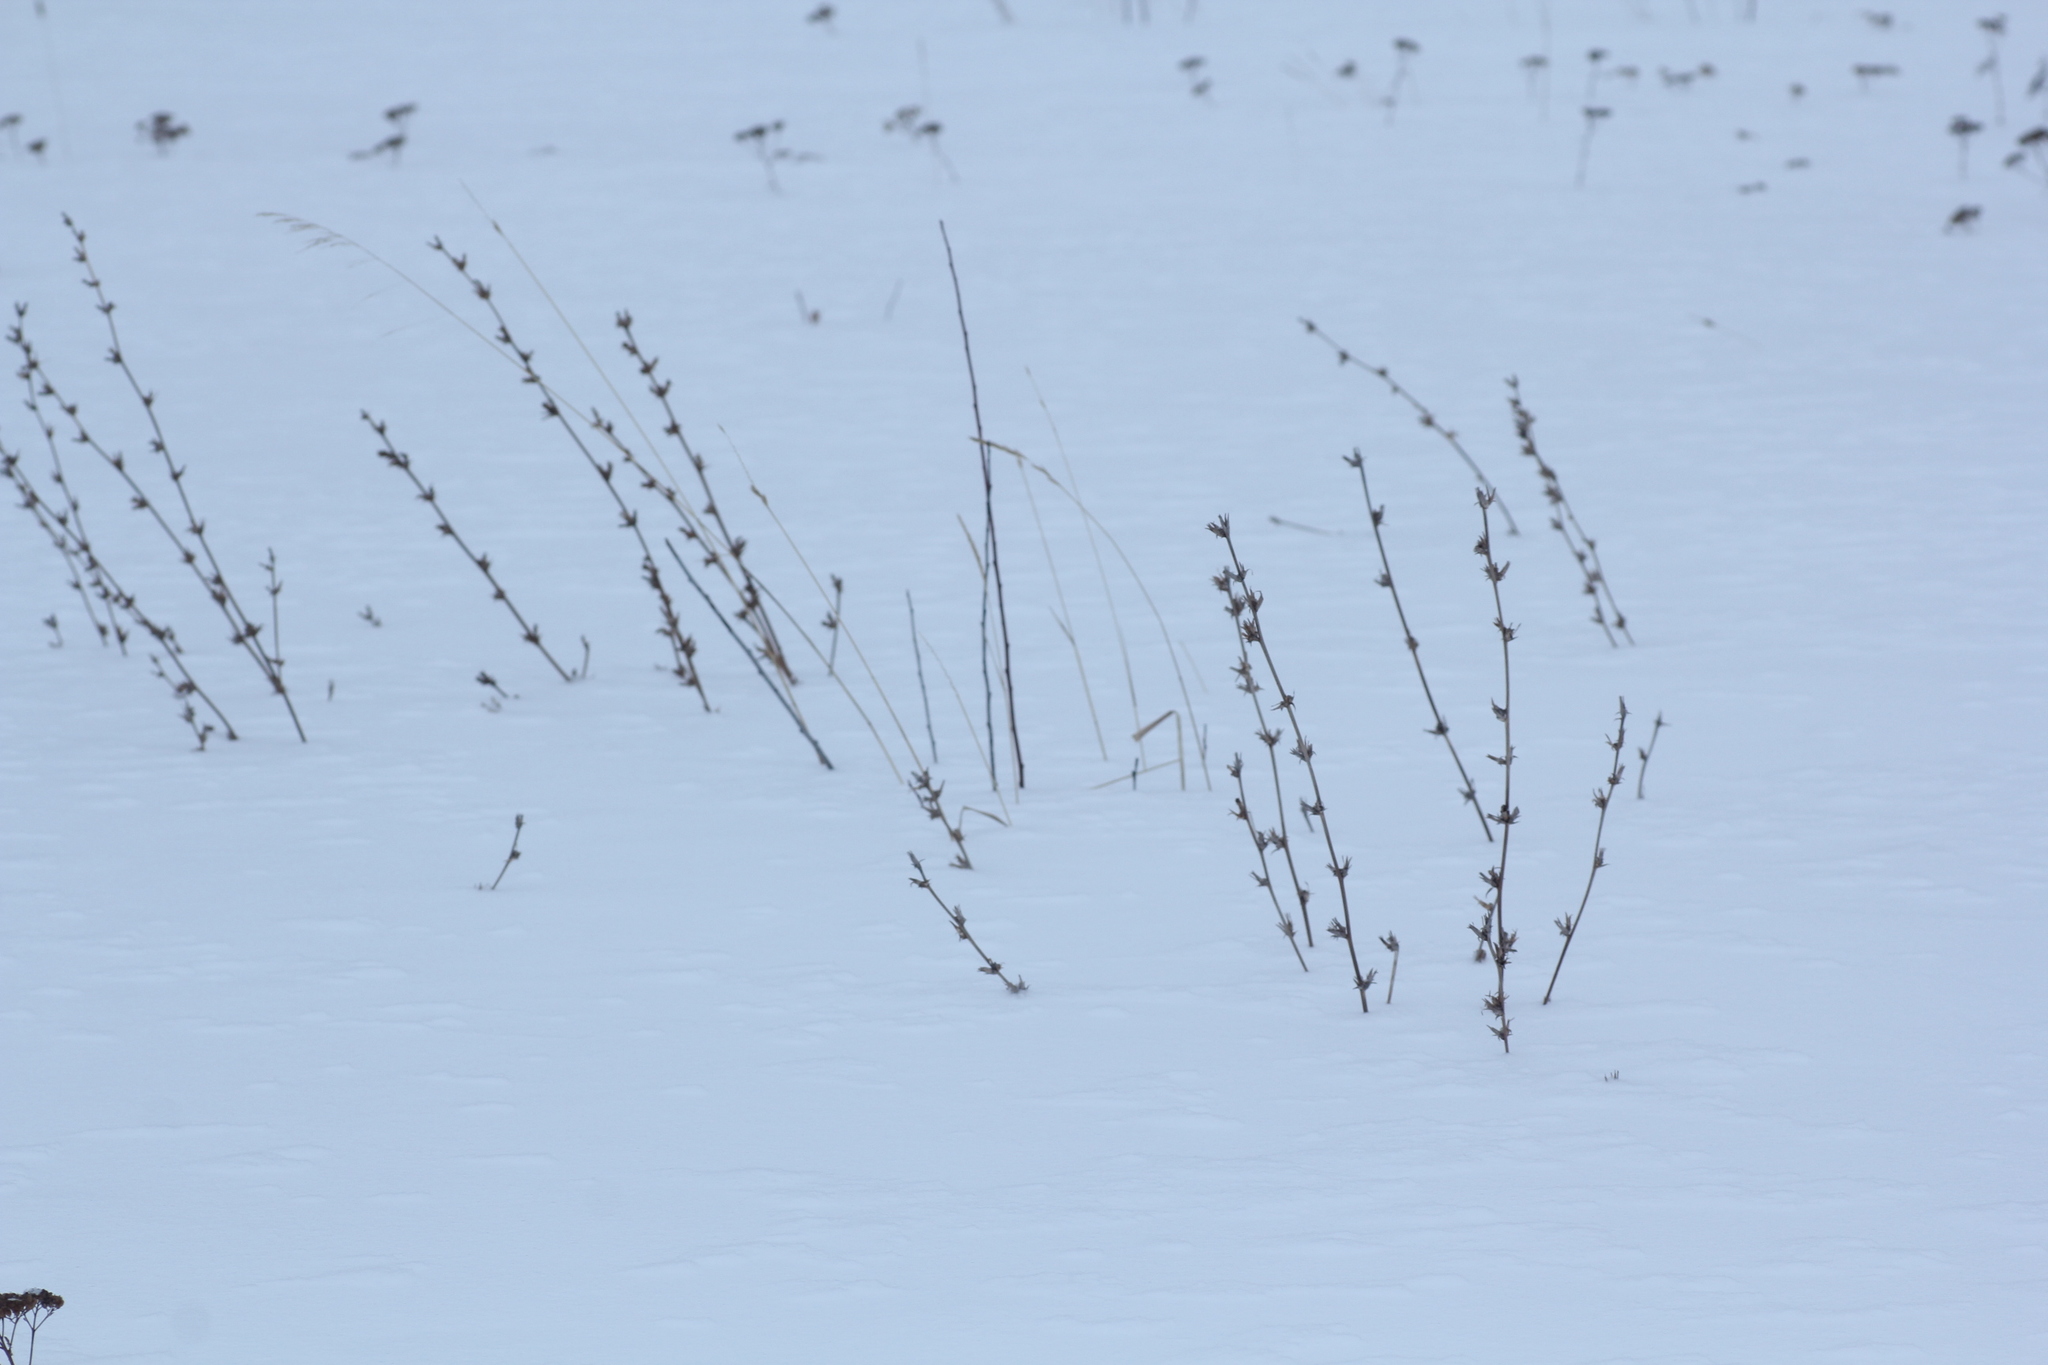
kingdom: Plantae
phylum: Tracheophyta
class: Magnoliopsida
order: Asterales
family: Asteraceae
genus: Cichorium
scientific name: Cichorium intybus
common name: Chicory
